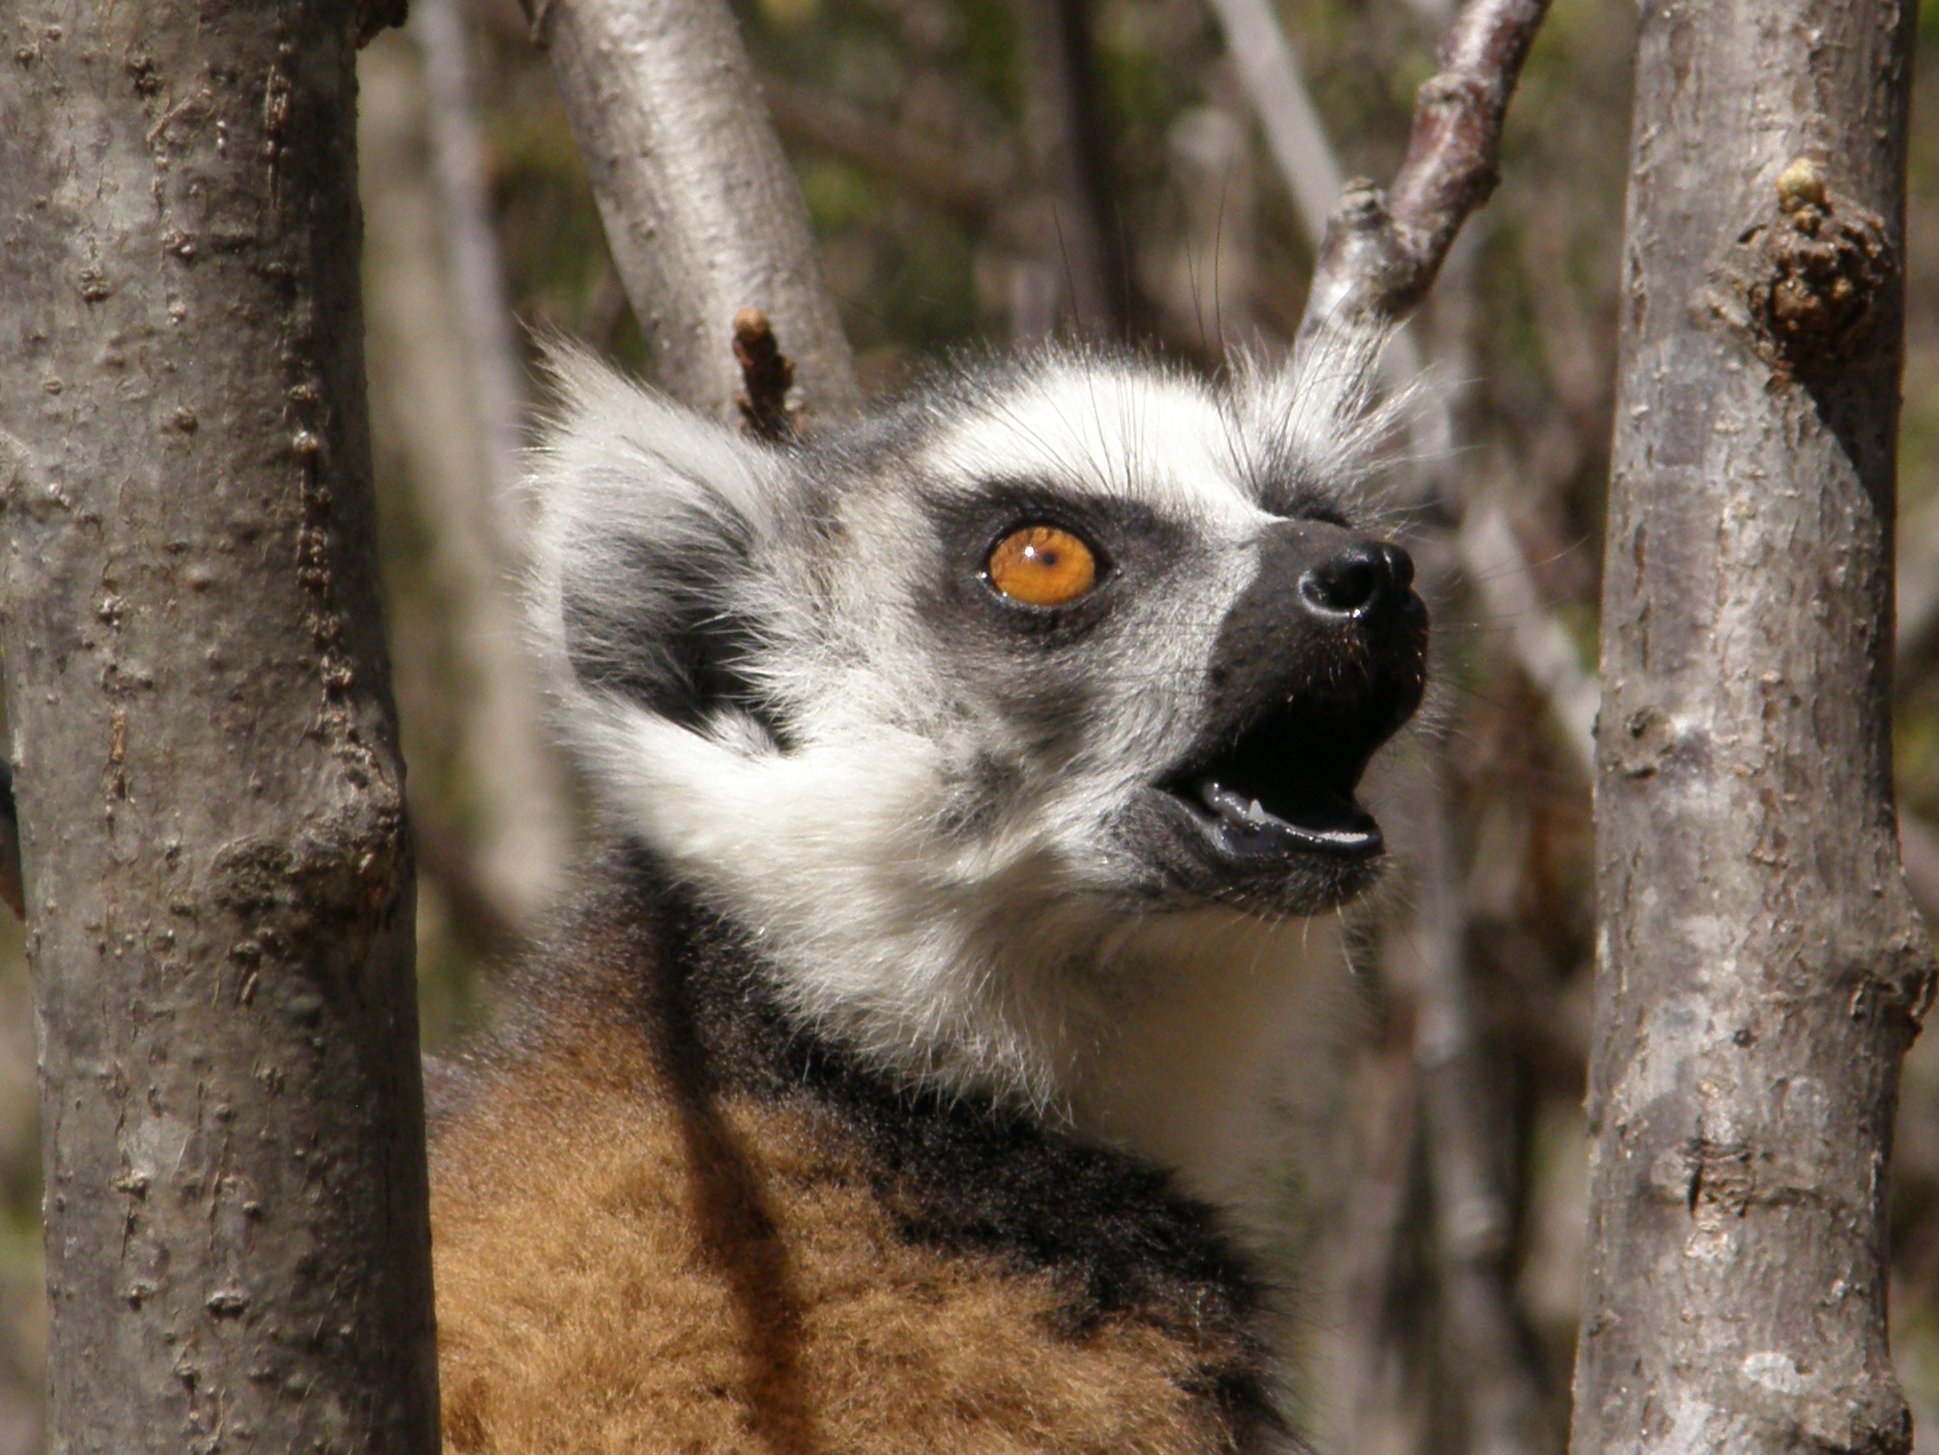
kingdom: Animalia
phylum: Chordata
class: Mammalia
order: Primates
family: Lemuridae
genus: Lemur
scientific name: Lemur catta
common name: Ring-tailed lemur
